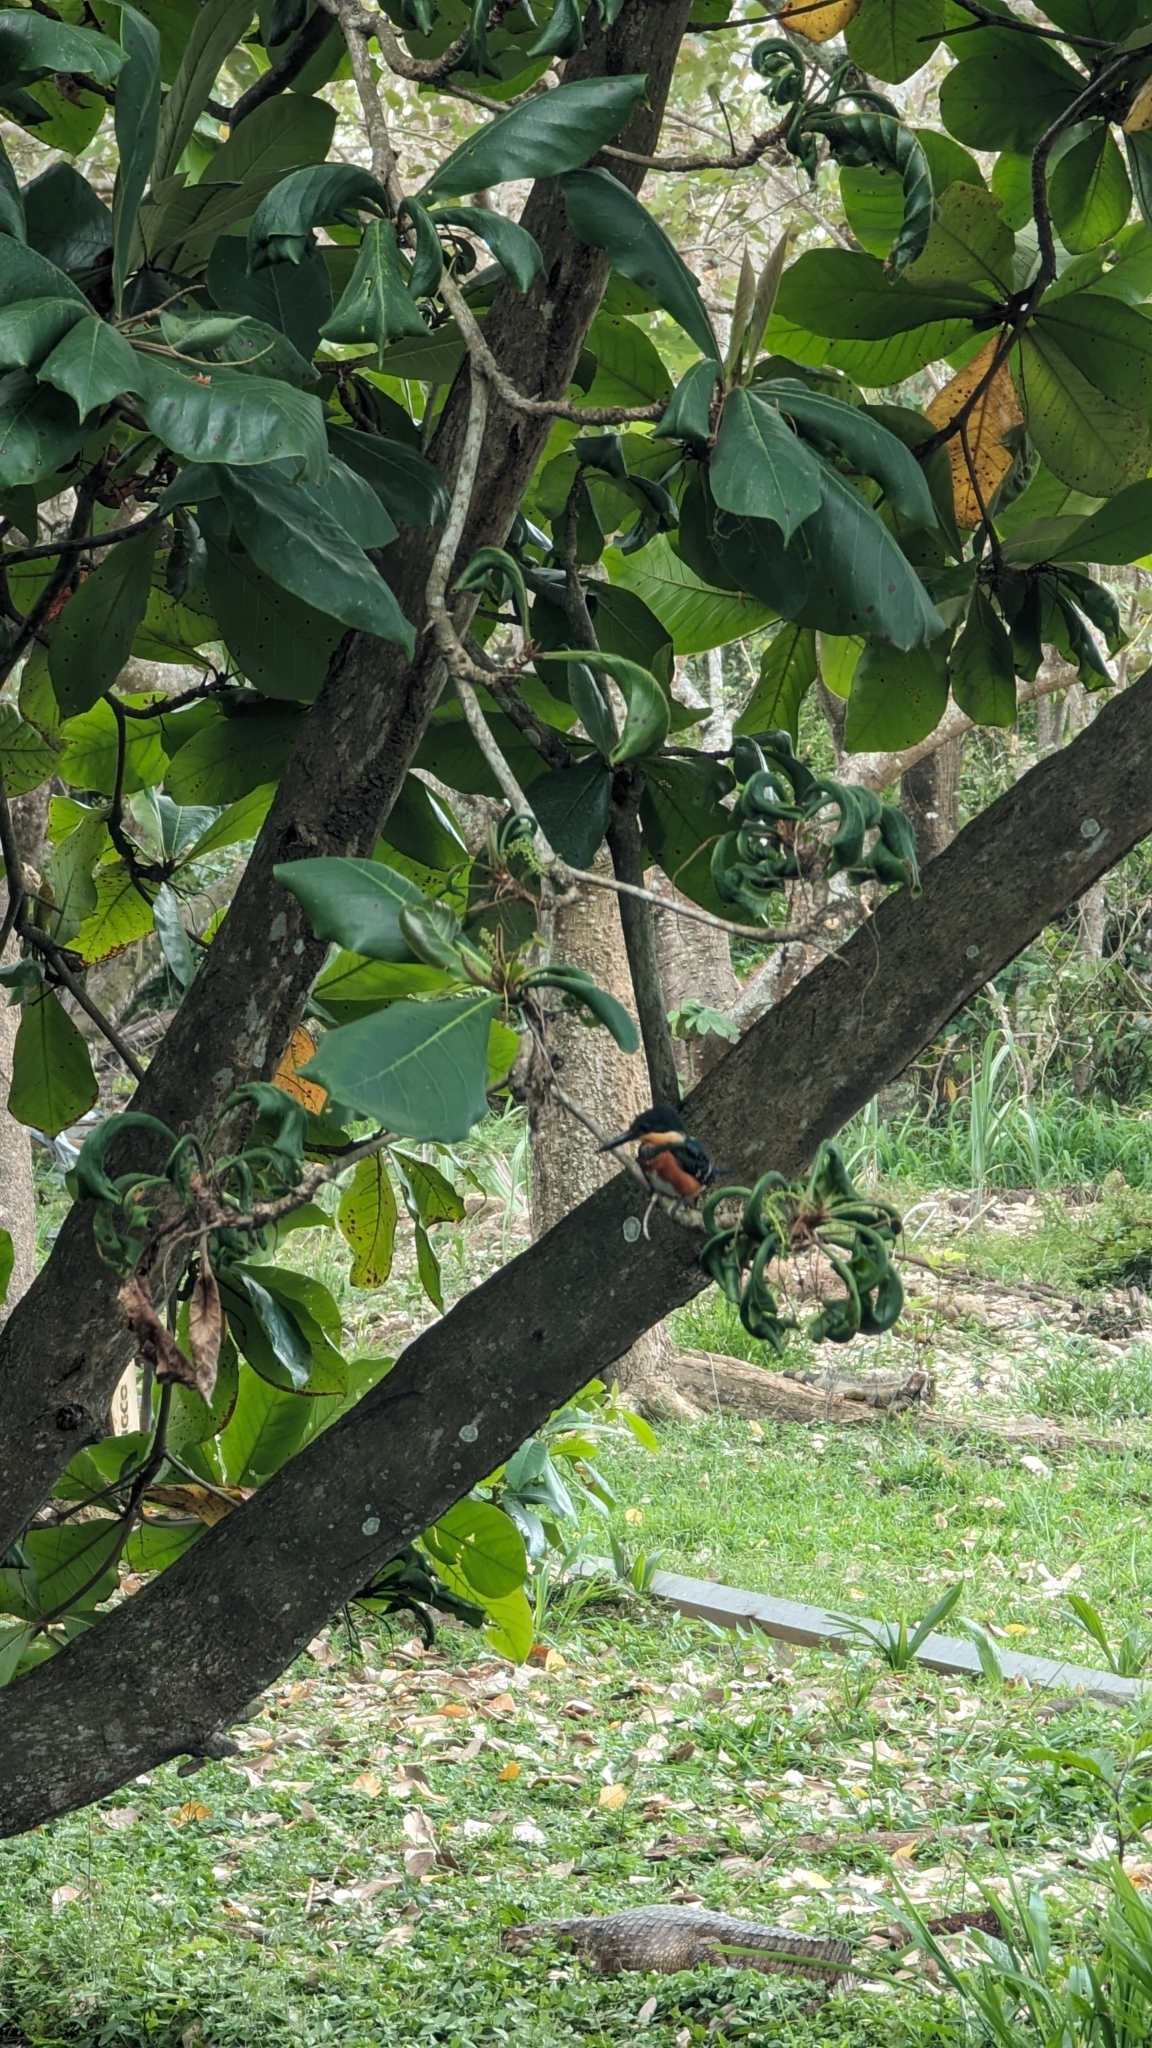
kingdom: Animalia
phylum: Chordata
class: Aves
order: Coraciiformes
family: Alcedinidae
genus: Chloroceryle
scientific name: Chloroceryle aenea
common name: American pygmy kingfisher
